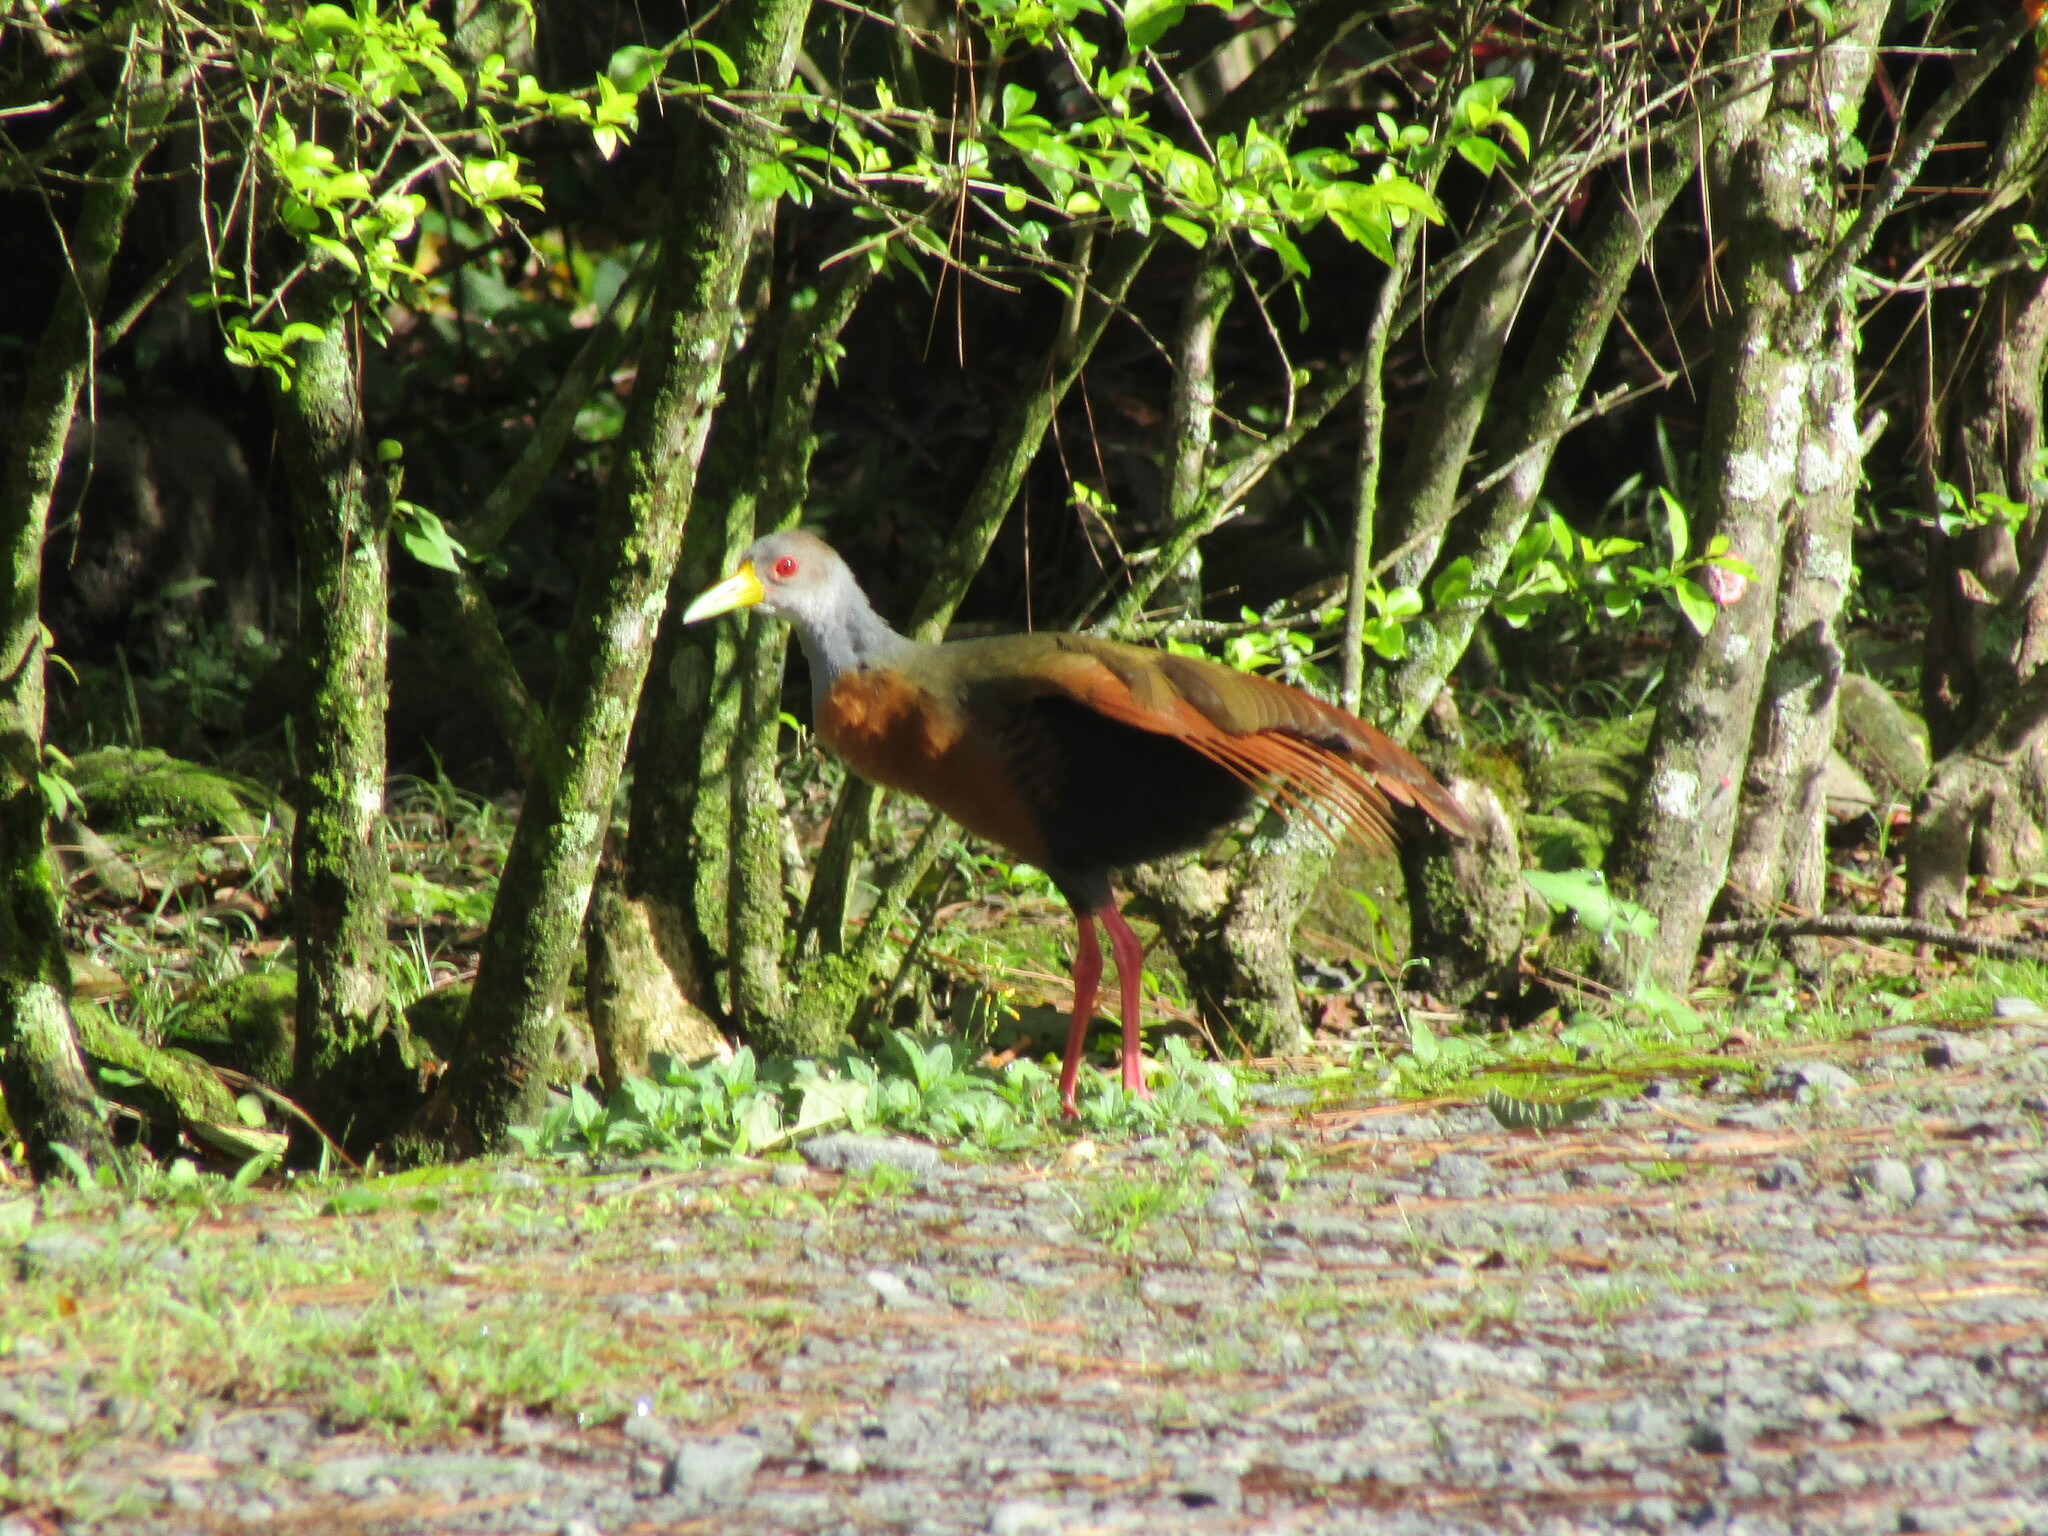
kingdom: Animalia
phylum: Chordata
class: Aves
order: Gruiformes
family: Rallidae
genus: Aramides
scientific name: Aramides cajanea
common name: Gray-necked wood-rail
